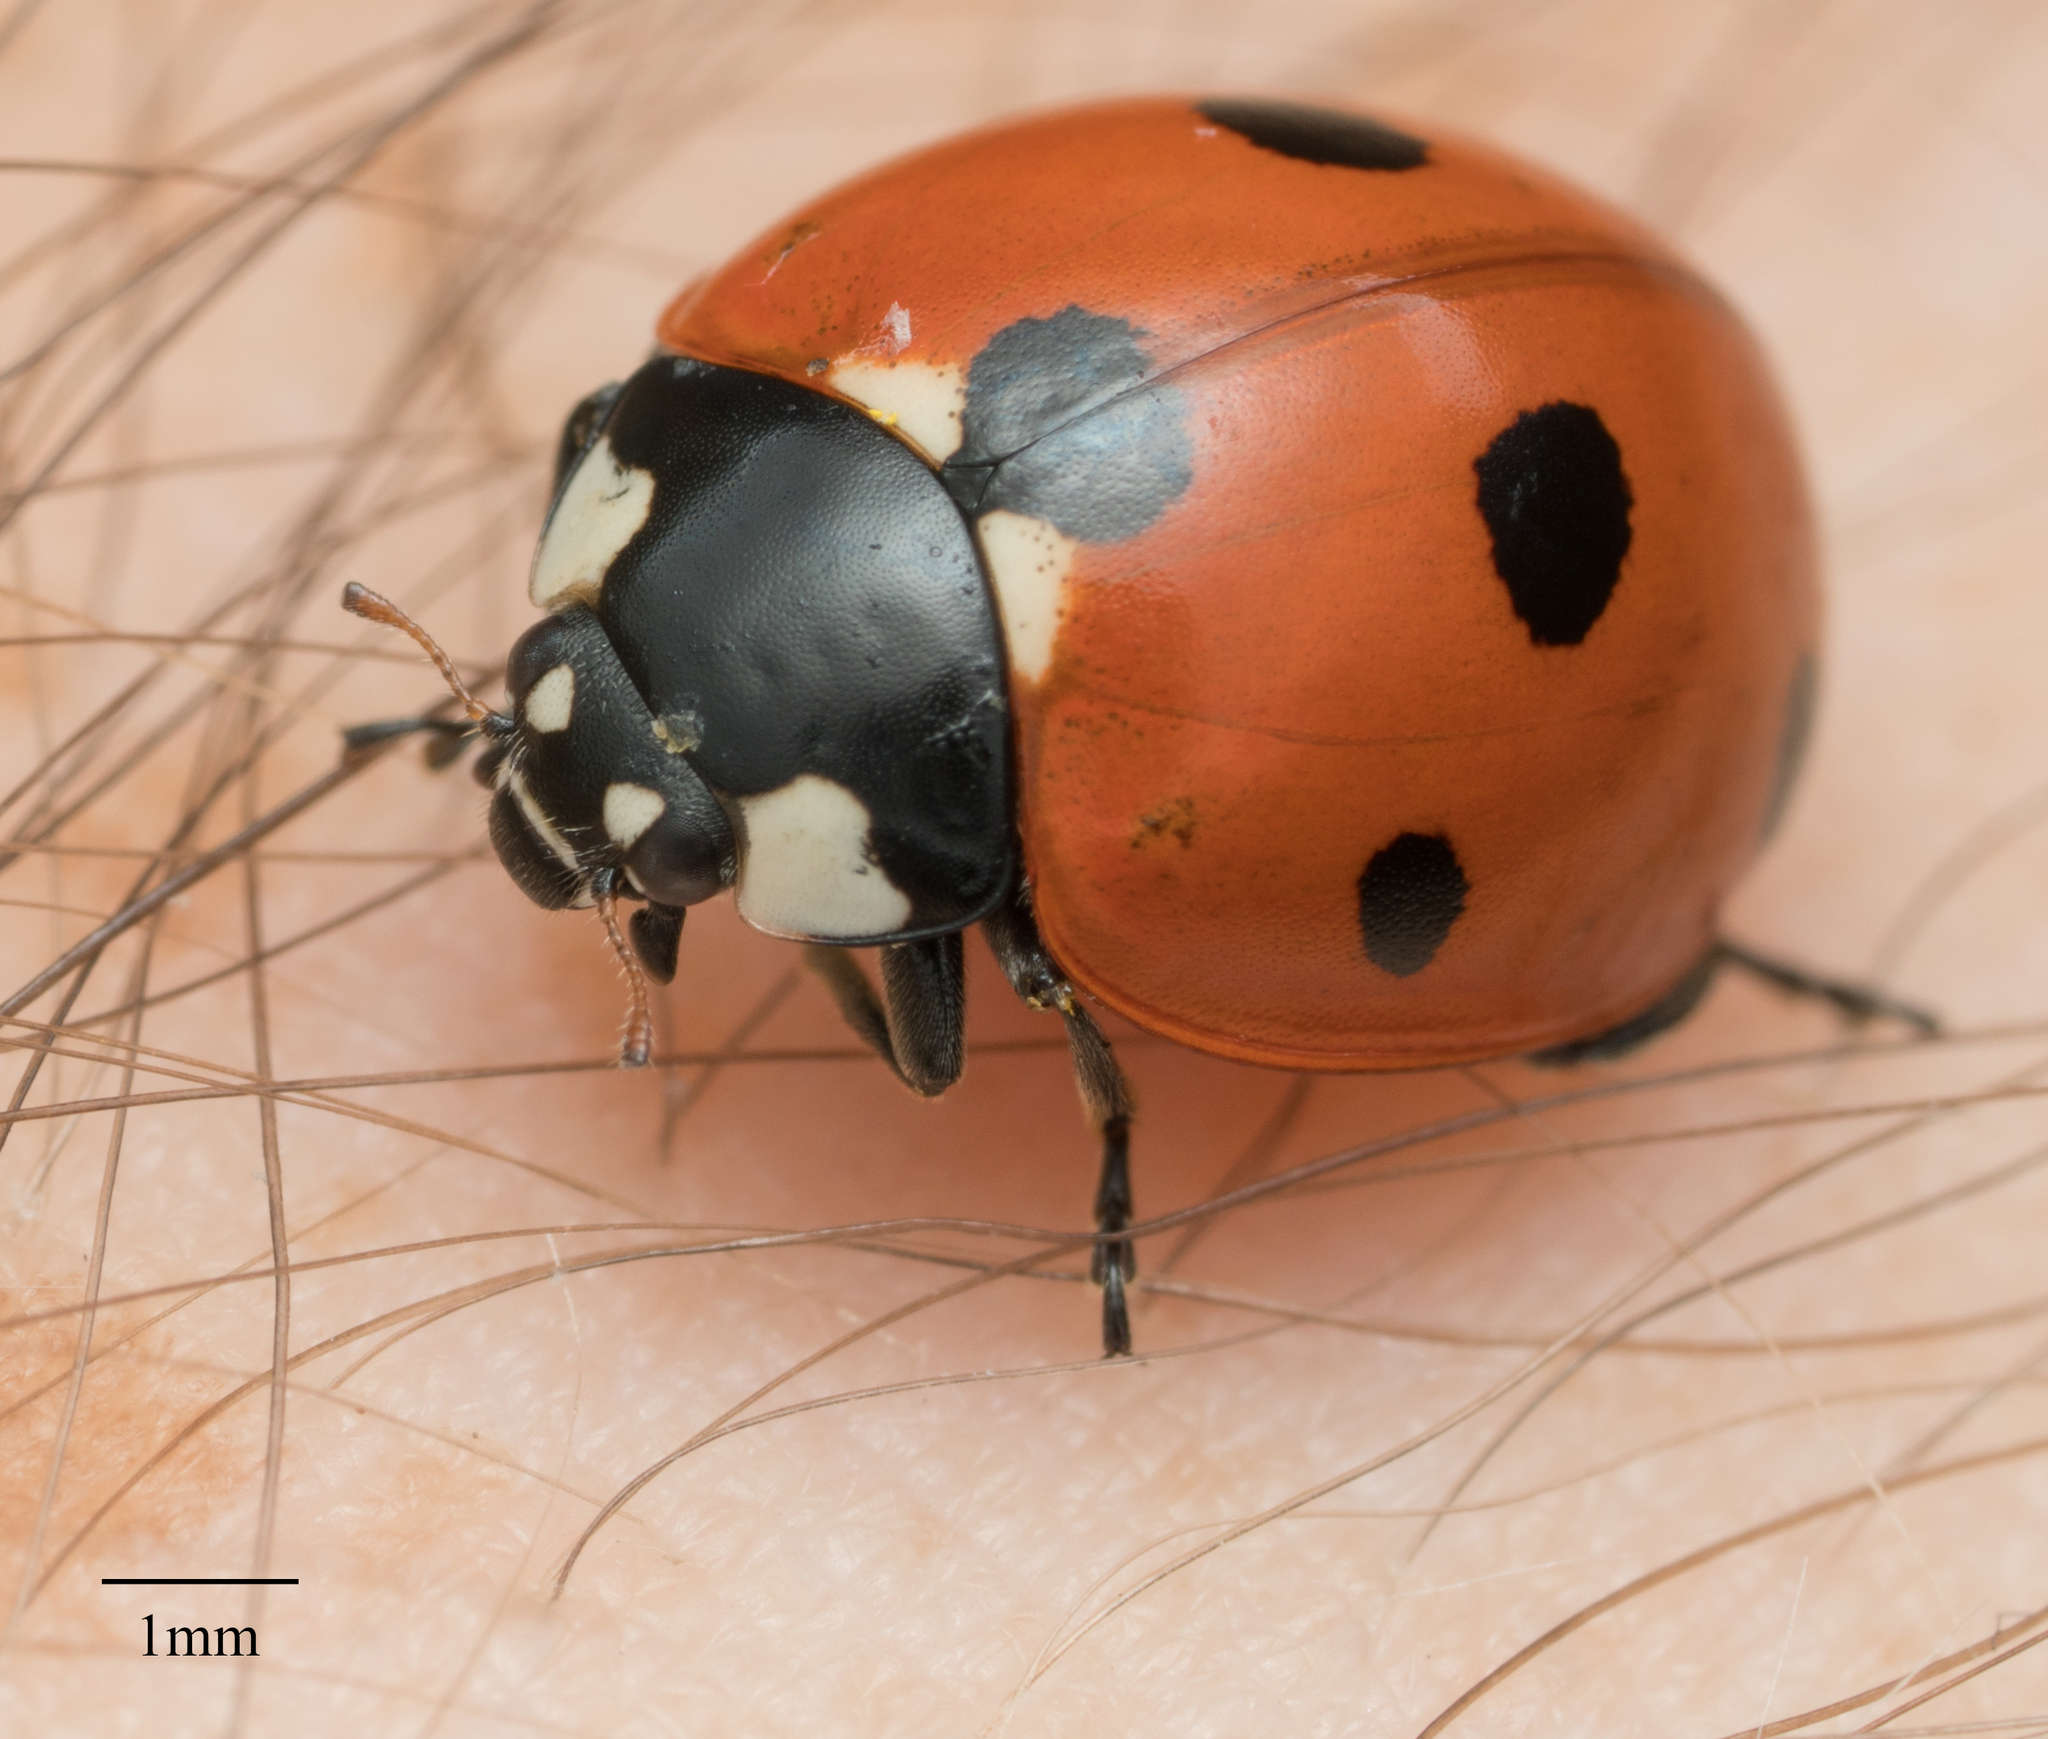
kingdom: Animalia
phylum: Arthropoda
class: Insecta
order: Coleoptera
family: Coccinellidae
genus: Coccinella
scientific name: Coccinella septempunctata
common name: Sevenspotted lady beetle
